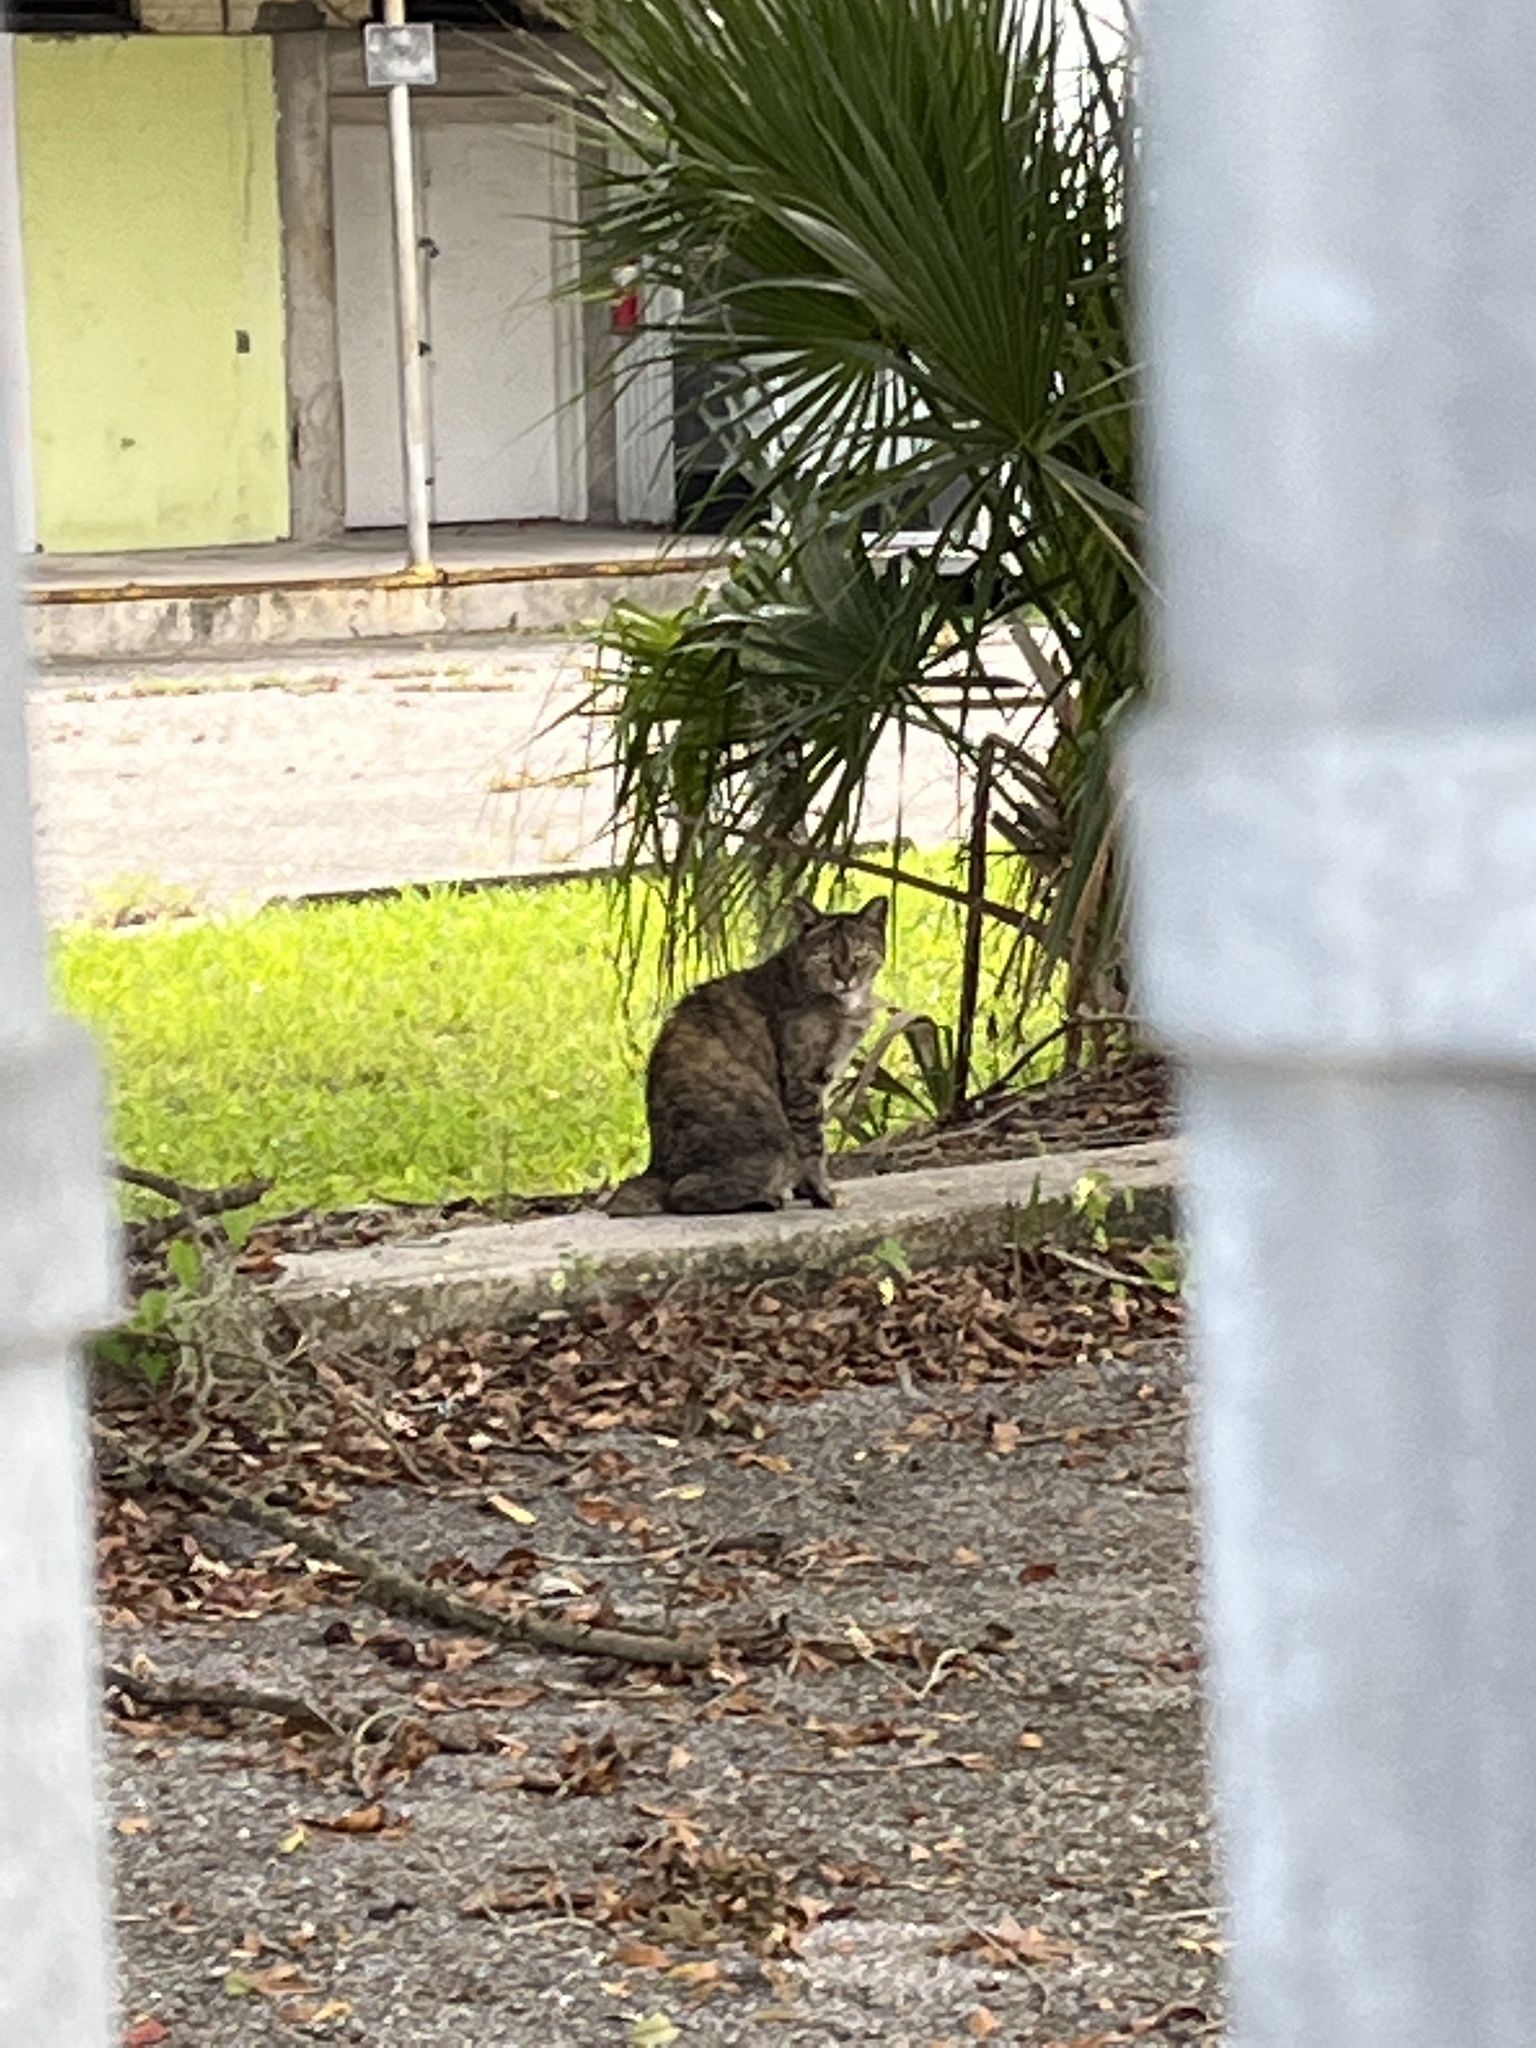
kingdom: Animalia
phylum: Chordata
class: Mammalia
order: Carnivora
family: Felidae
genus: Felis
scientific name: Felis catus
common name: Domestic cat
